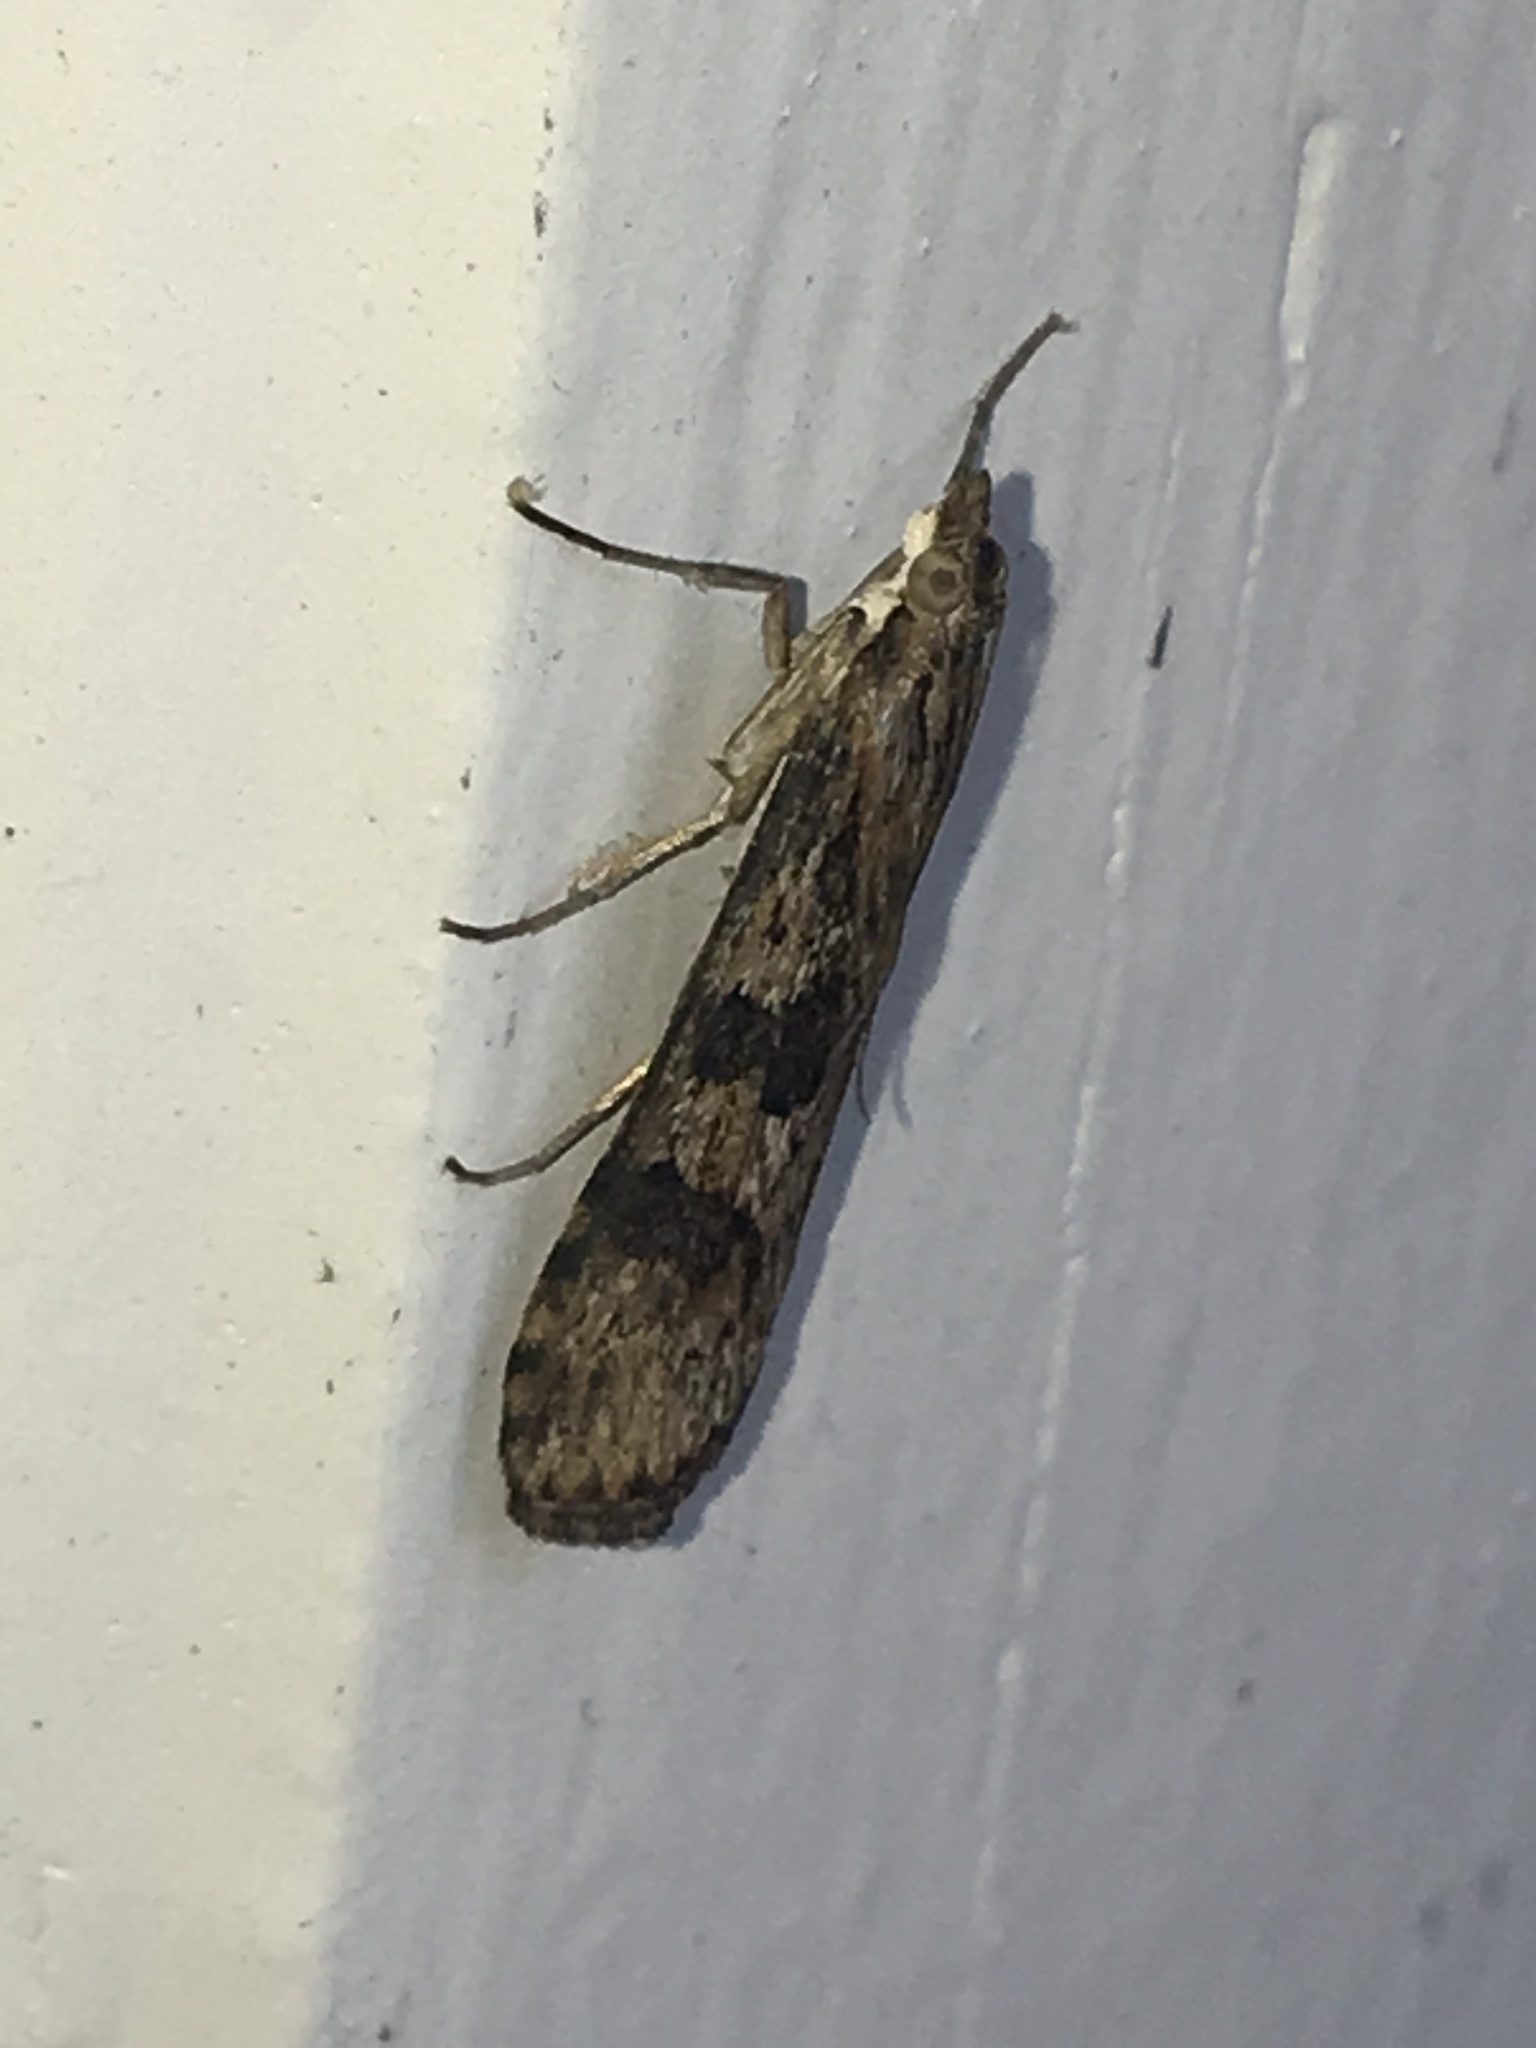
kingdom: Animalia
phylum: Arthropoda
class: Insecta
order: Lepidoptera
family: Crambidae
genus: Nomophila
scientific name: Nomophila nearctica
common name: American rush veneer
